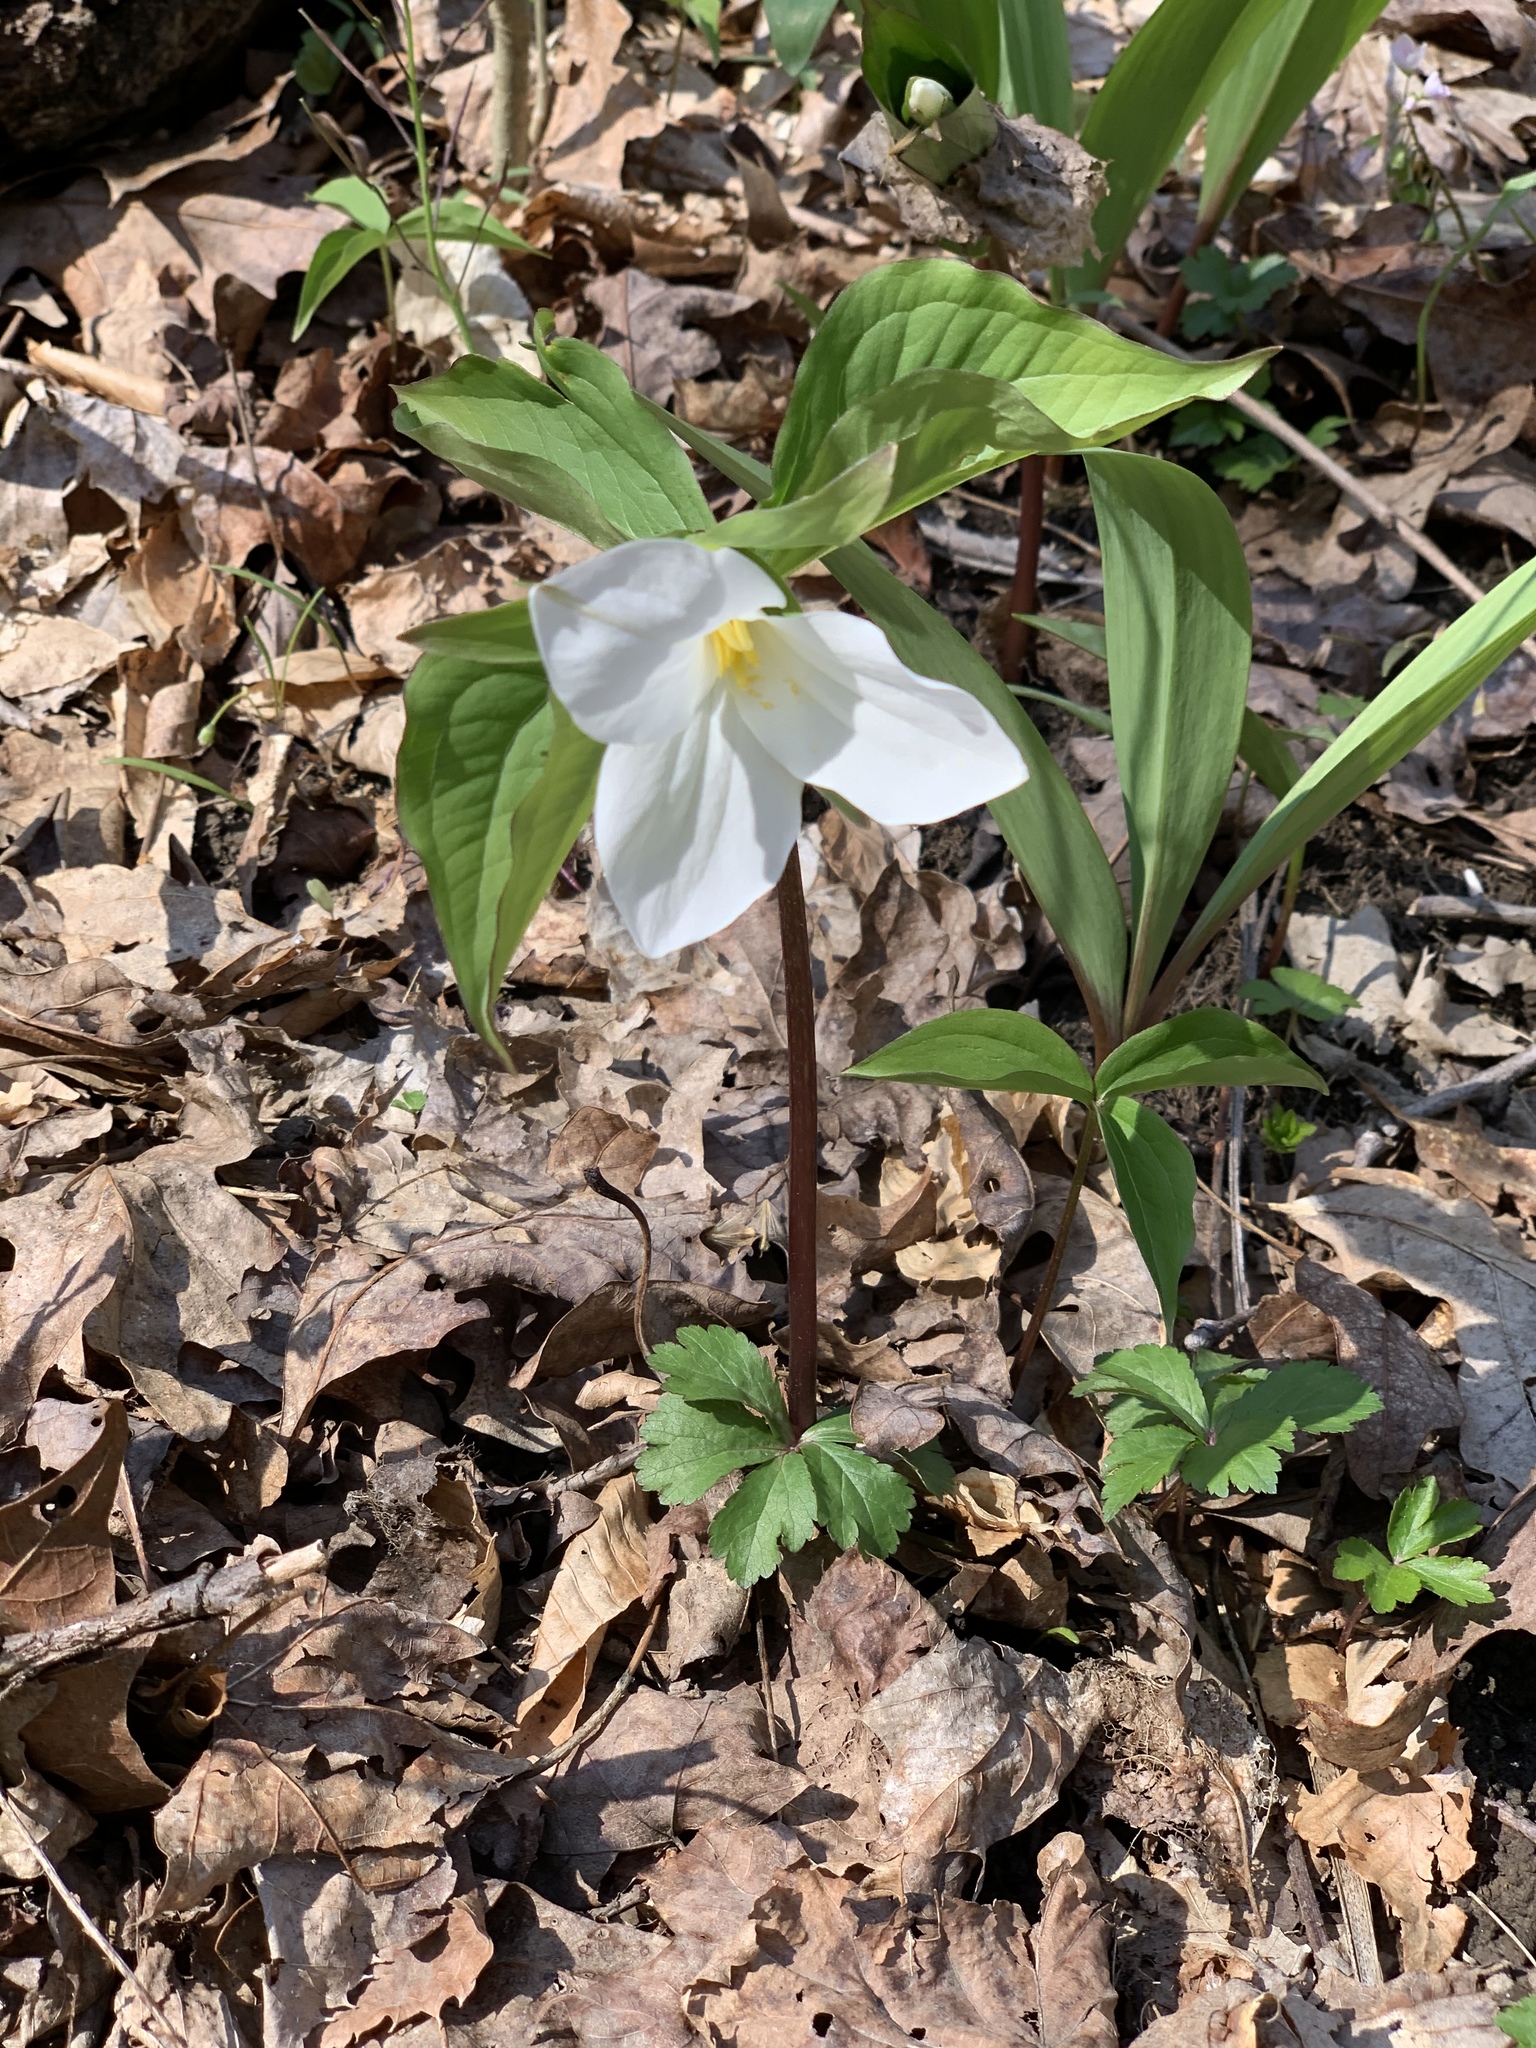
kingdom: Plantae
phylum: Tracheophyta
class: Liliopsida
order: Liliales
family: Melanthiaceae
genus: Trillium
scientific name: Trillium grandiflorum
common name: Great white trillium
